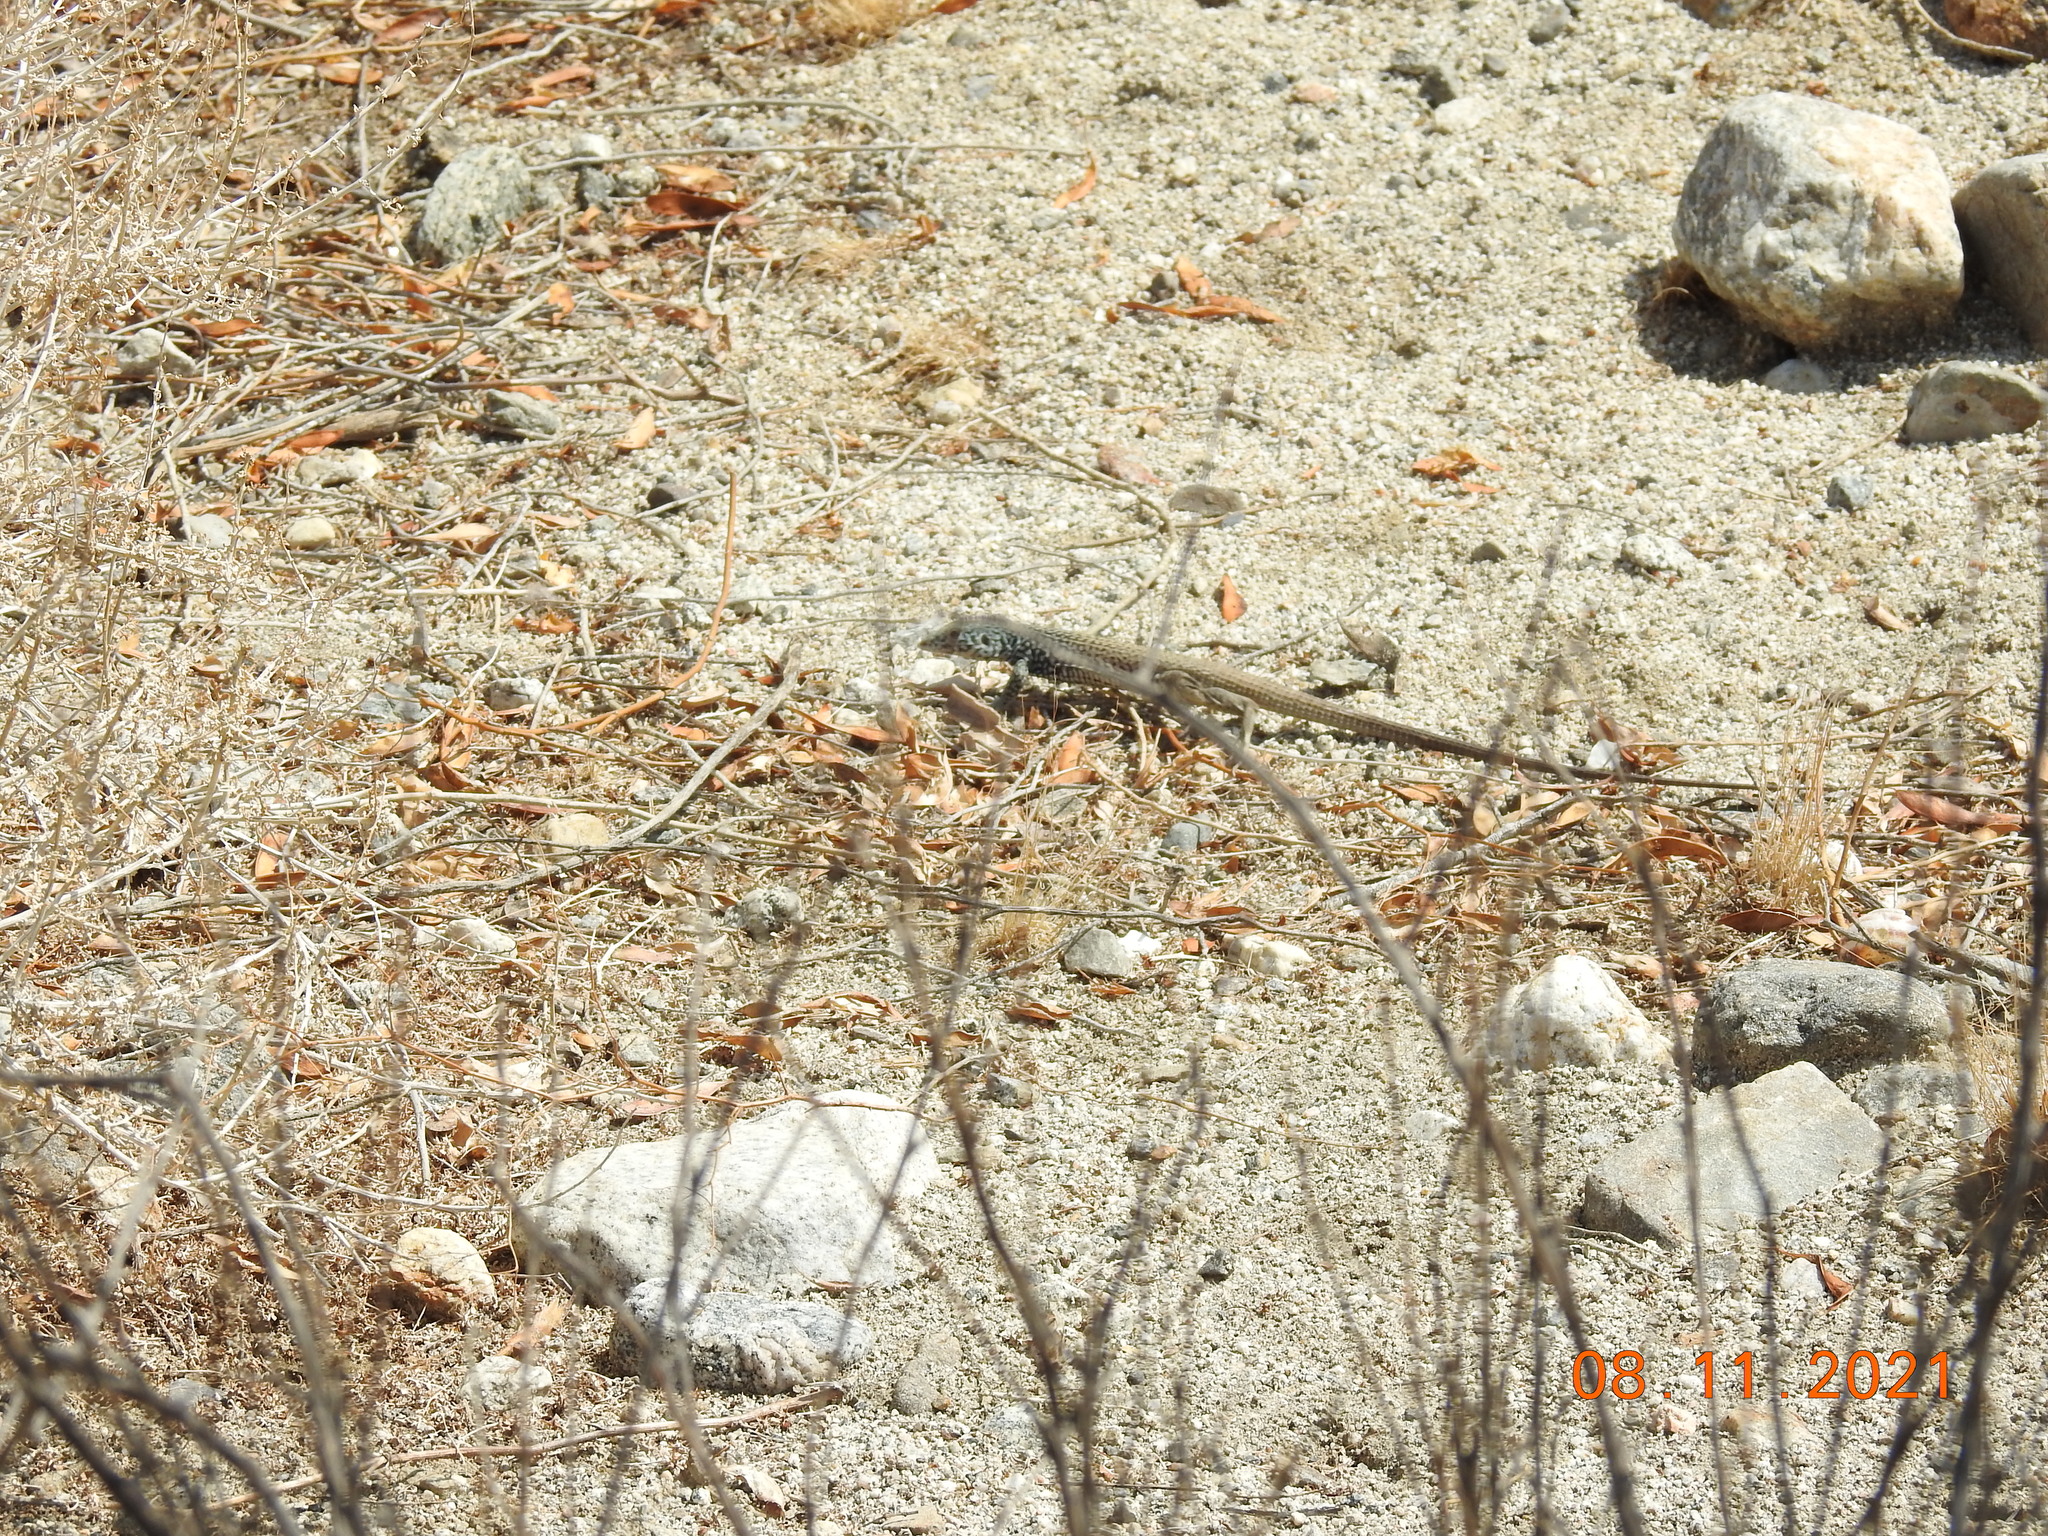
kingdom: Animalia
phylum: Chordata
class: Squamata
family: Teiidae
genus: Aspidoscelis
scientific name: Aspidoscelis tigris
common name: Tiger whiptail
